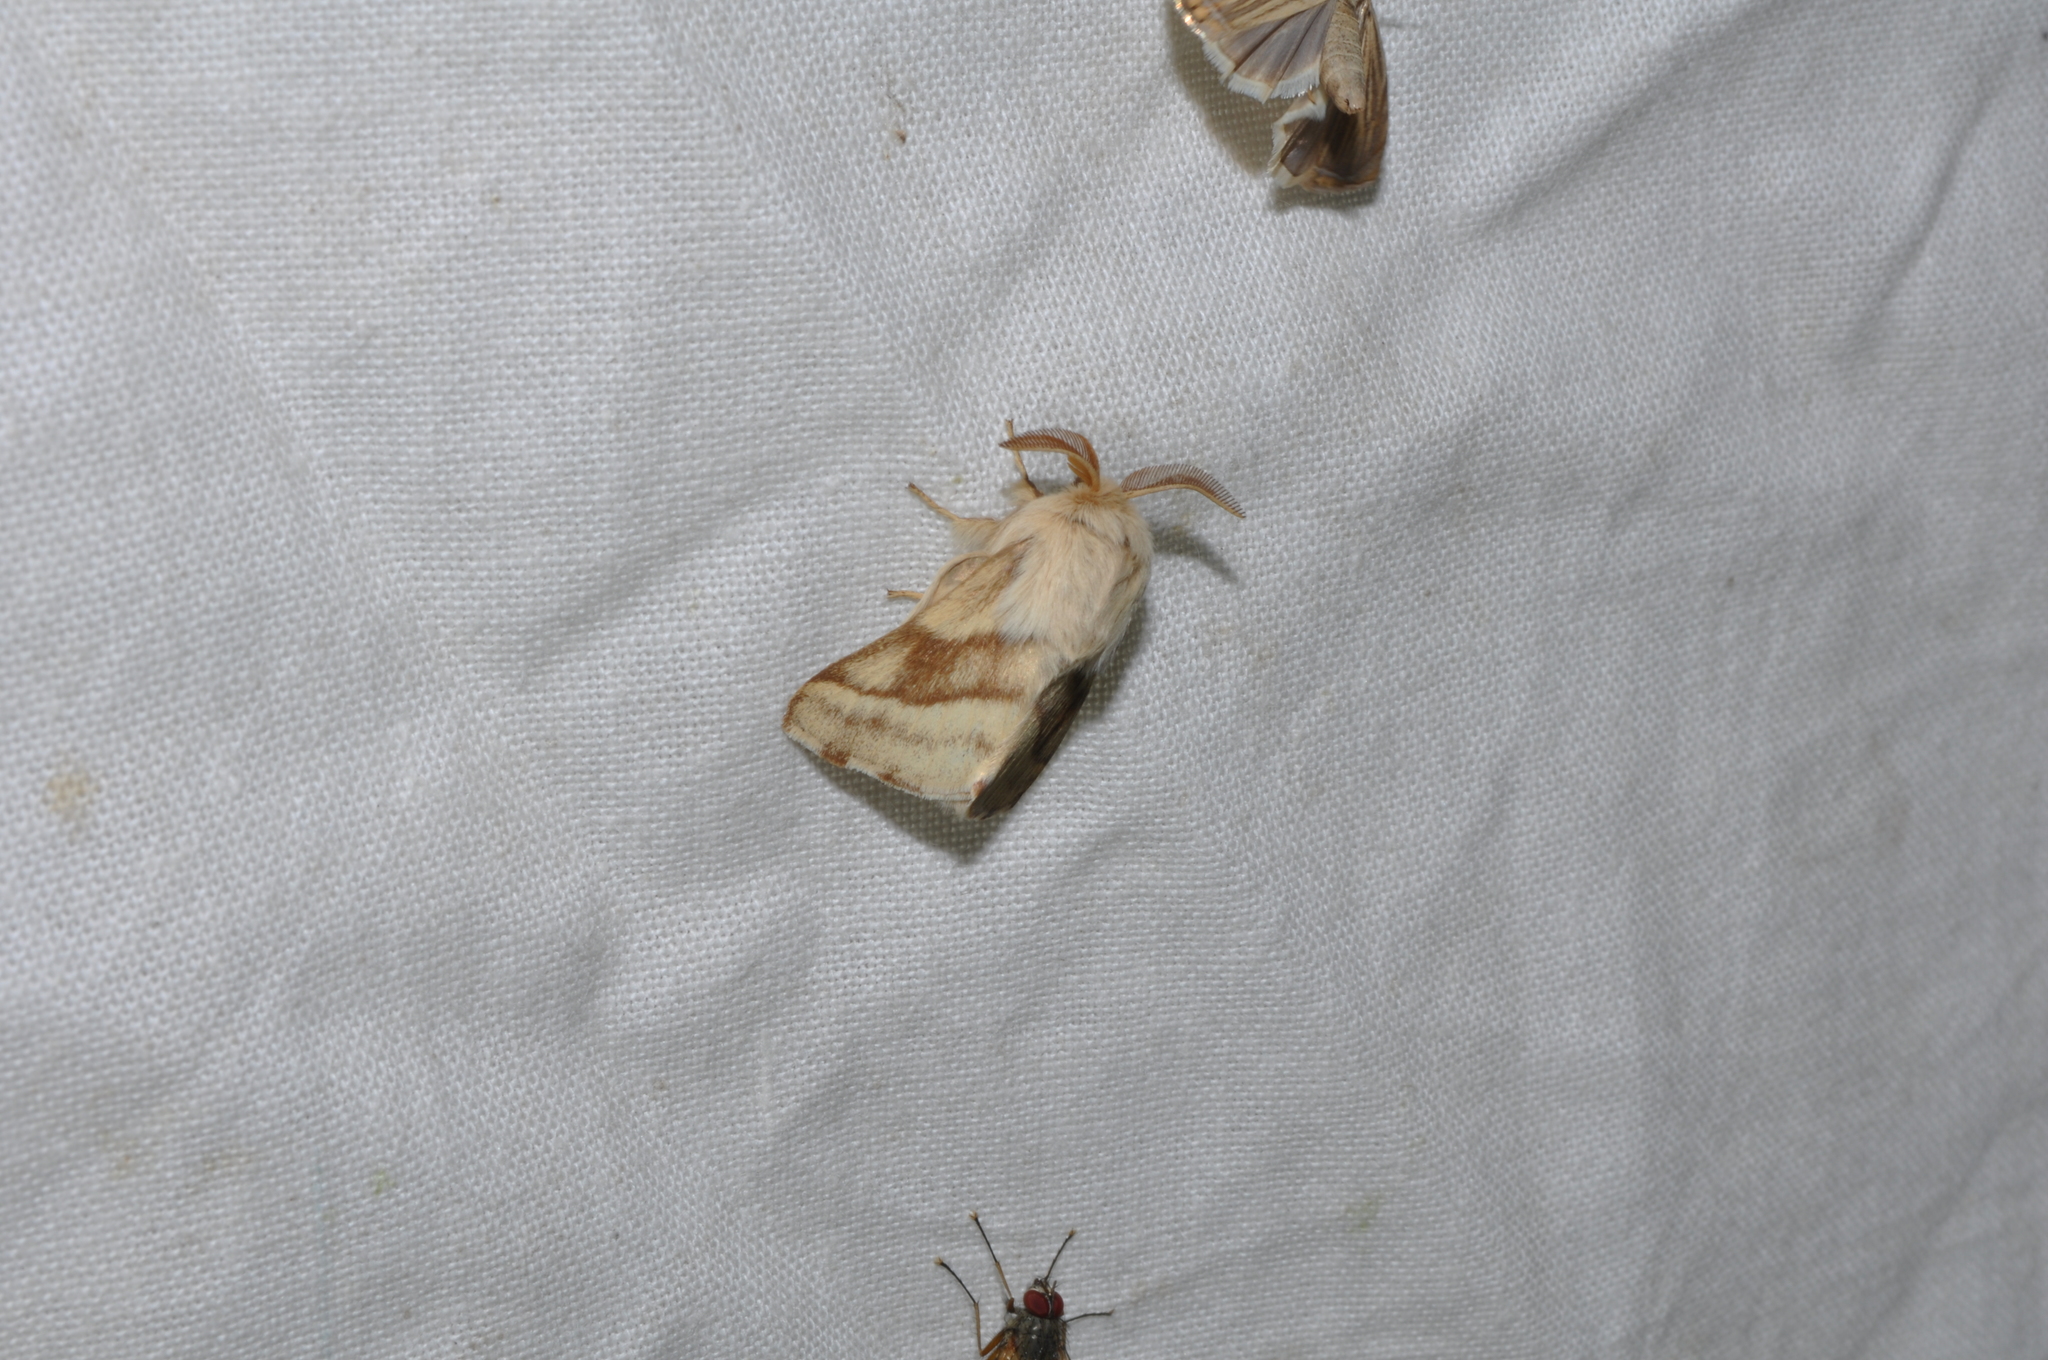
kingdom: Animalia
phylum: Arthropoda
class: Insecta
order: Lepidoptera
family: Lasiocampidae
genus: Malacosoma
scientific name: Malacosoma castrense
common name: Ground lackey
